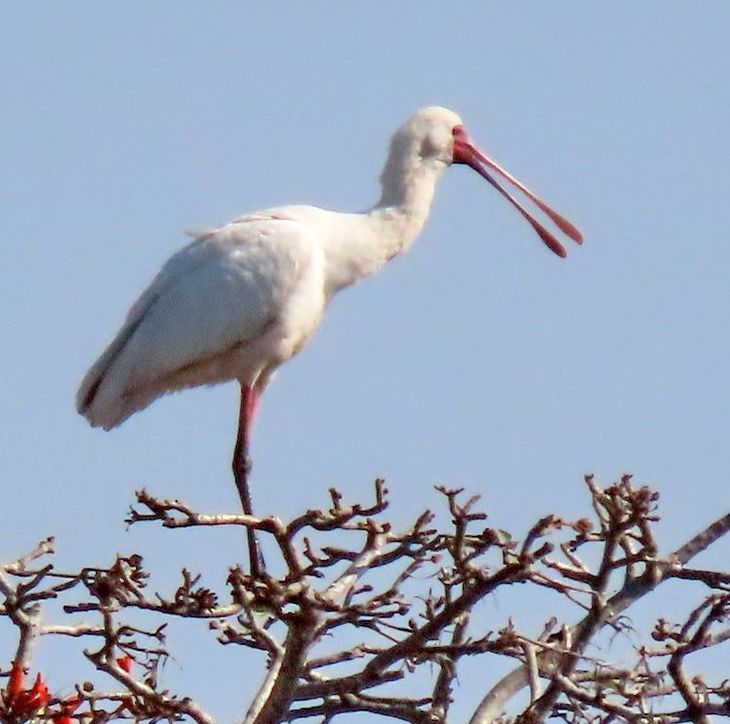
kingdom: Animalia
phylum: Chordata
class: Aves
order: Pelecaniformes
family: Threskiornithidae
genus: Platalea
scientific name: Platalea alba
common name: African spoonbill
